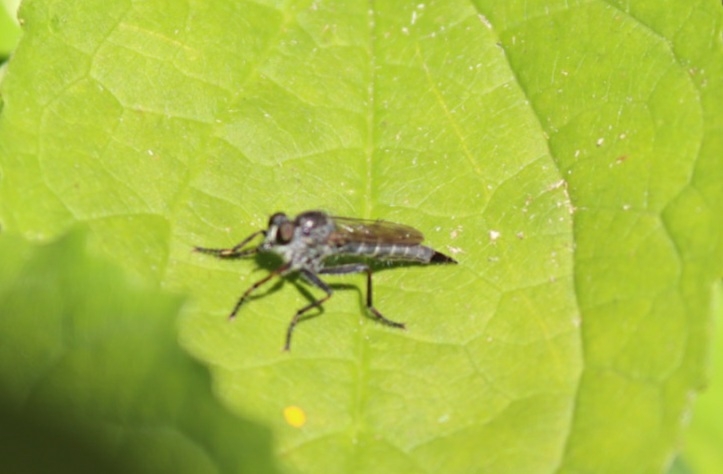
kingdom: Animalia
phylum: Arthropoda
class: Insecta
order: Diptera
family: Asilidae
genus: Machimus
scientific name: Machimus atricapillus
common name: Kite-tailed robberfly
